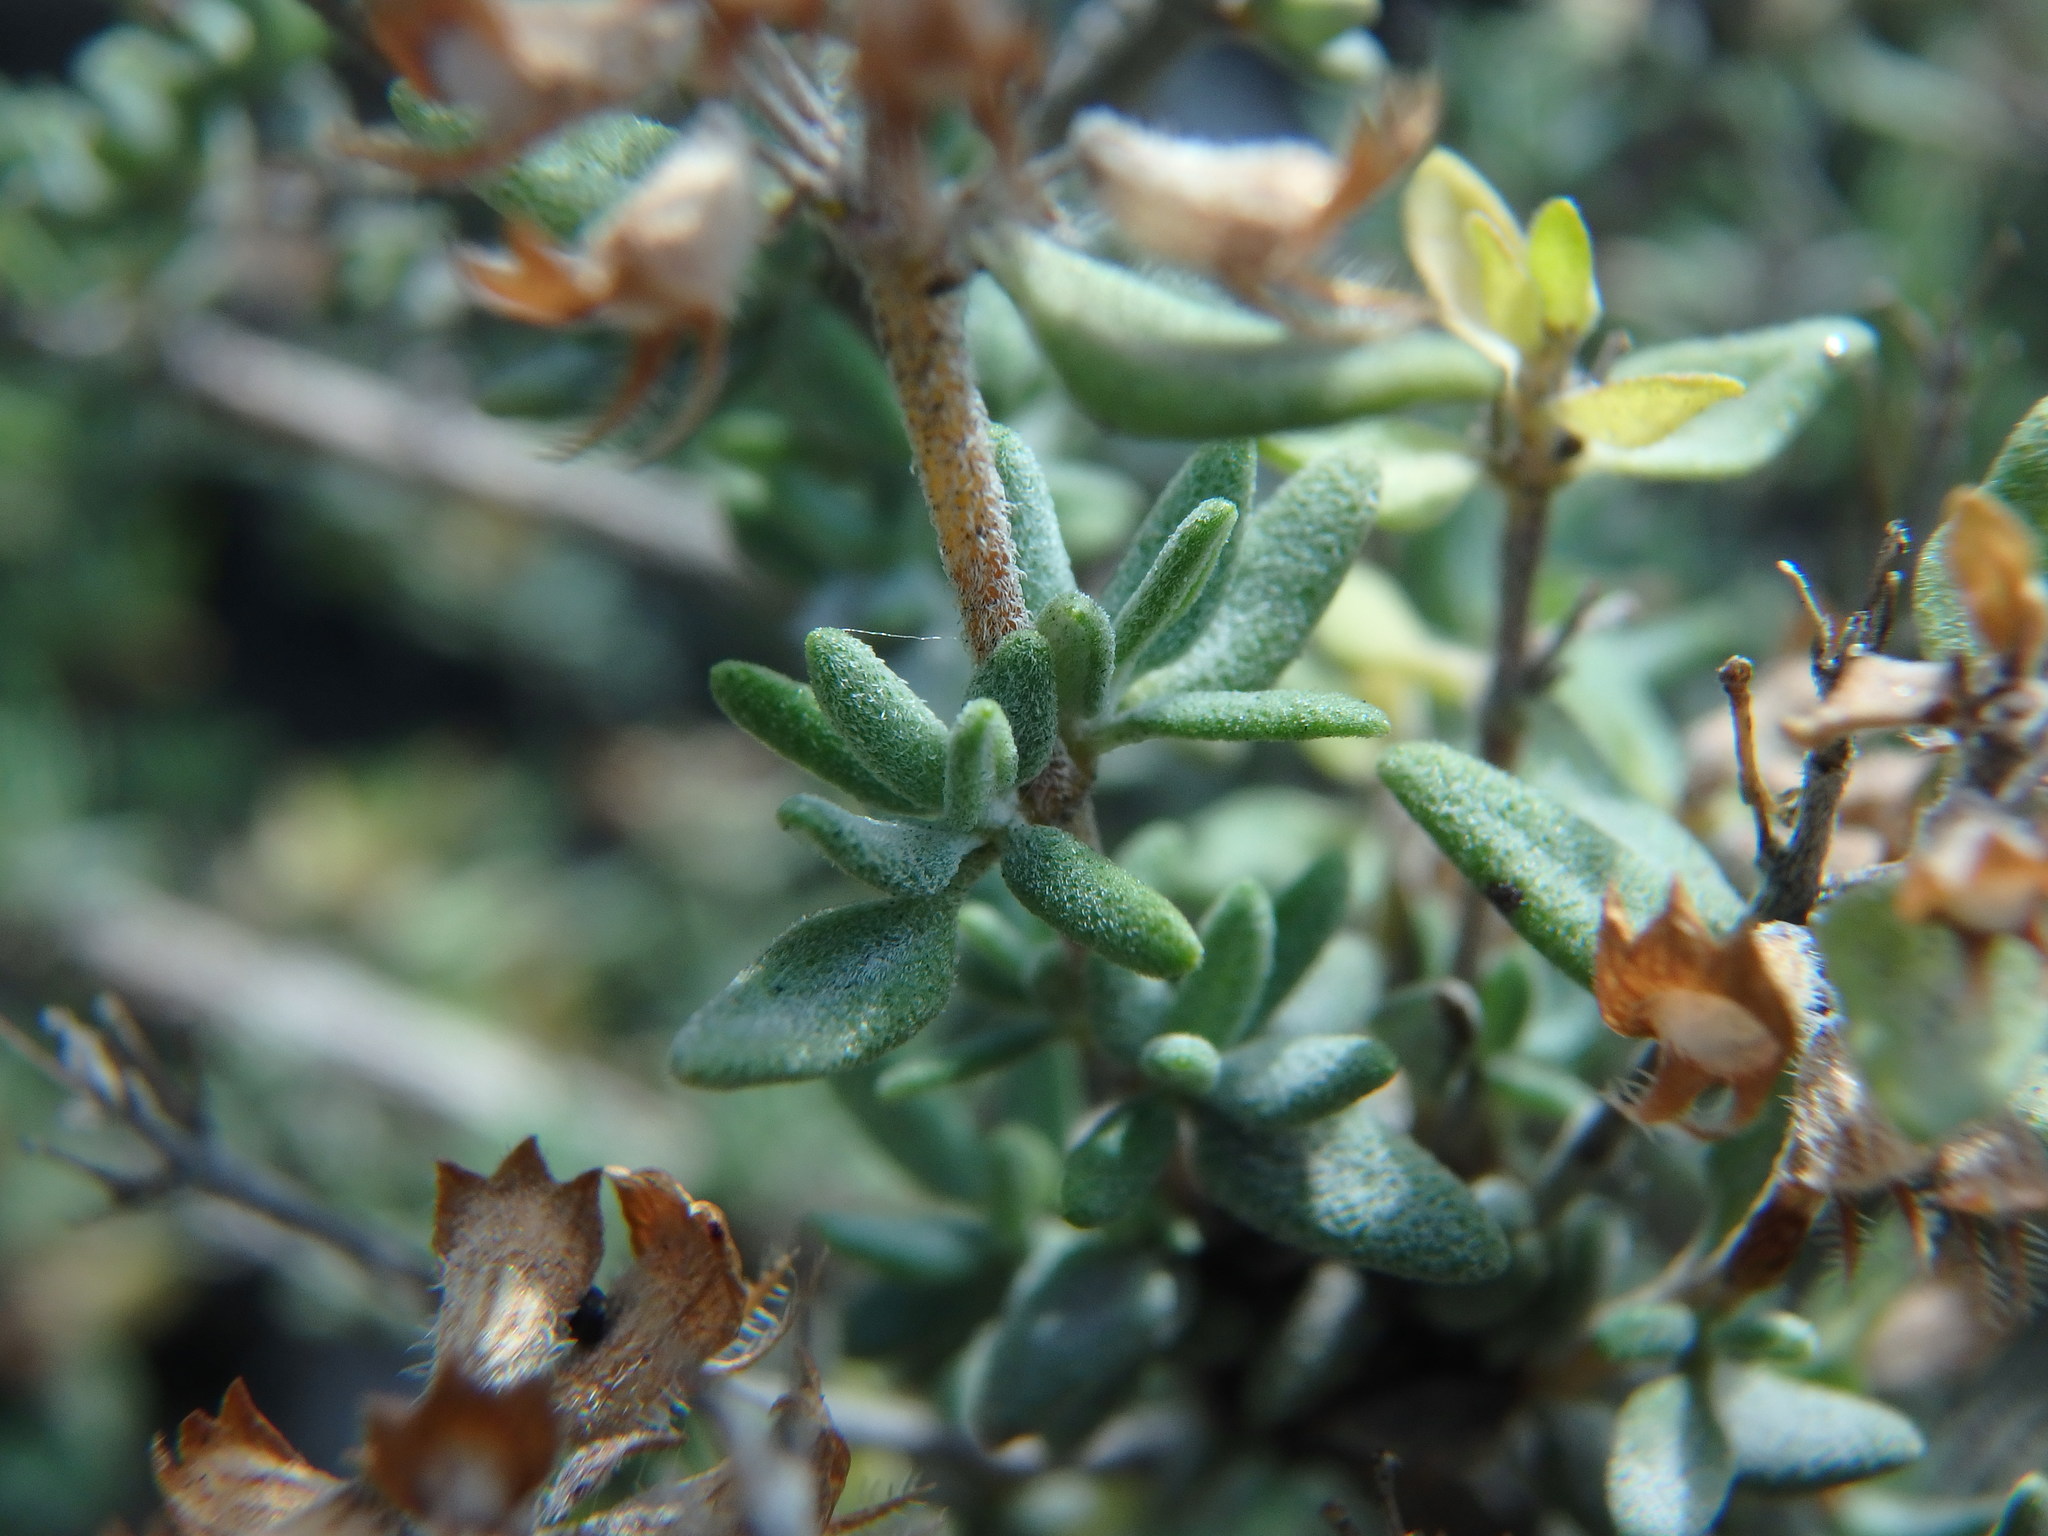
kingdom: Plantae
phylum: Tracheophyta
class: Magnoliopsida
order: Lamiales
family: Lamiaceae
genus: Thymus
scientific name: Thymus vulgaris
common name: Garden thyme
